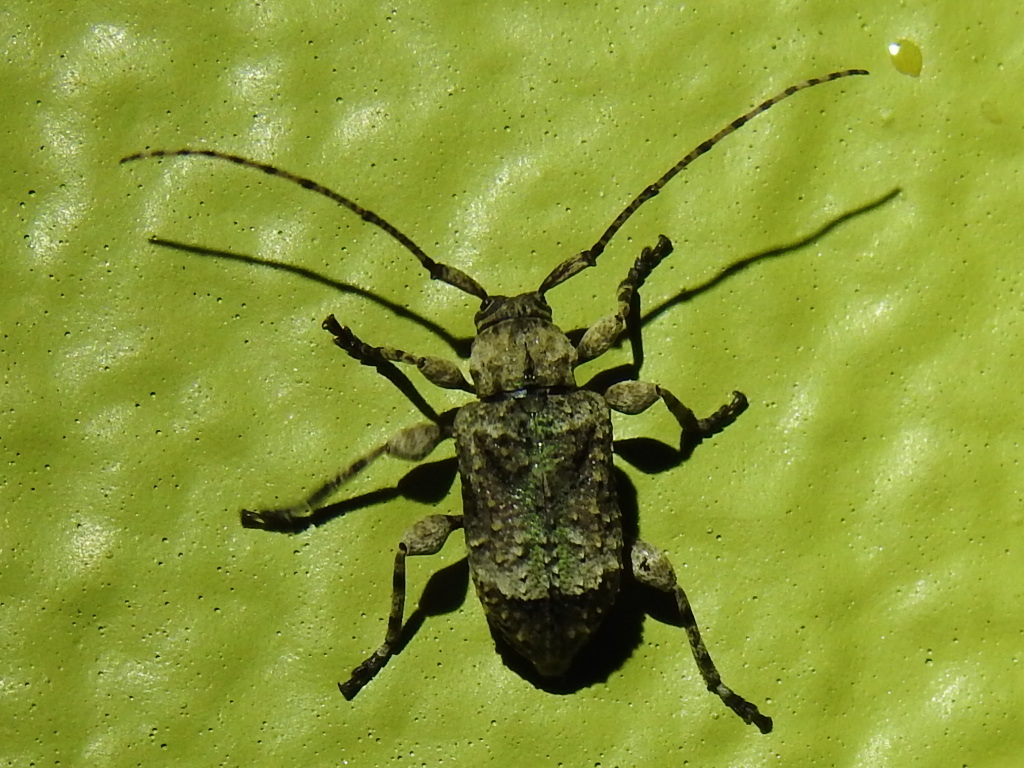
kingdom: Animalia
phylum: Arthropoda
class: Insecta
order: Coleoptera
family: Cerambycidae
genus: Leptostylus
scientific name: Leptostylus transversus
